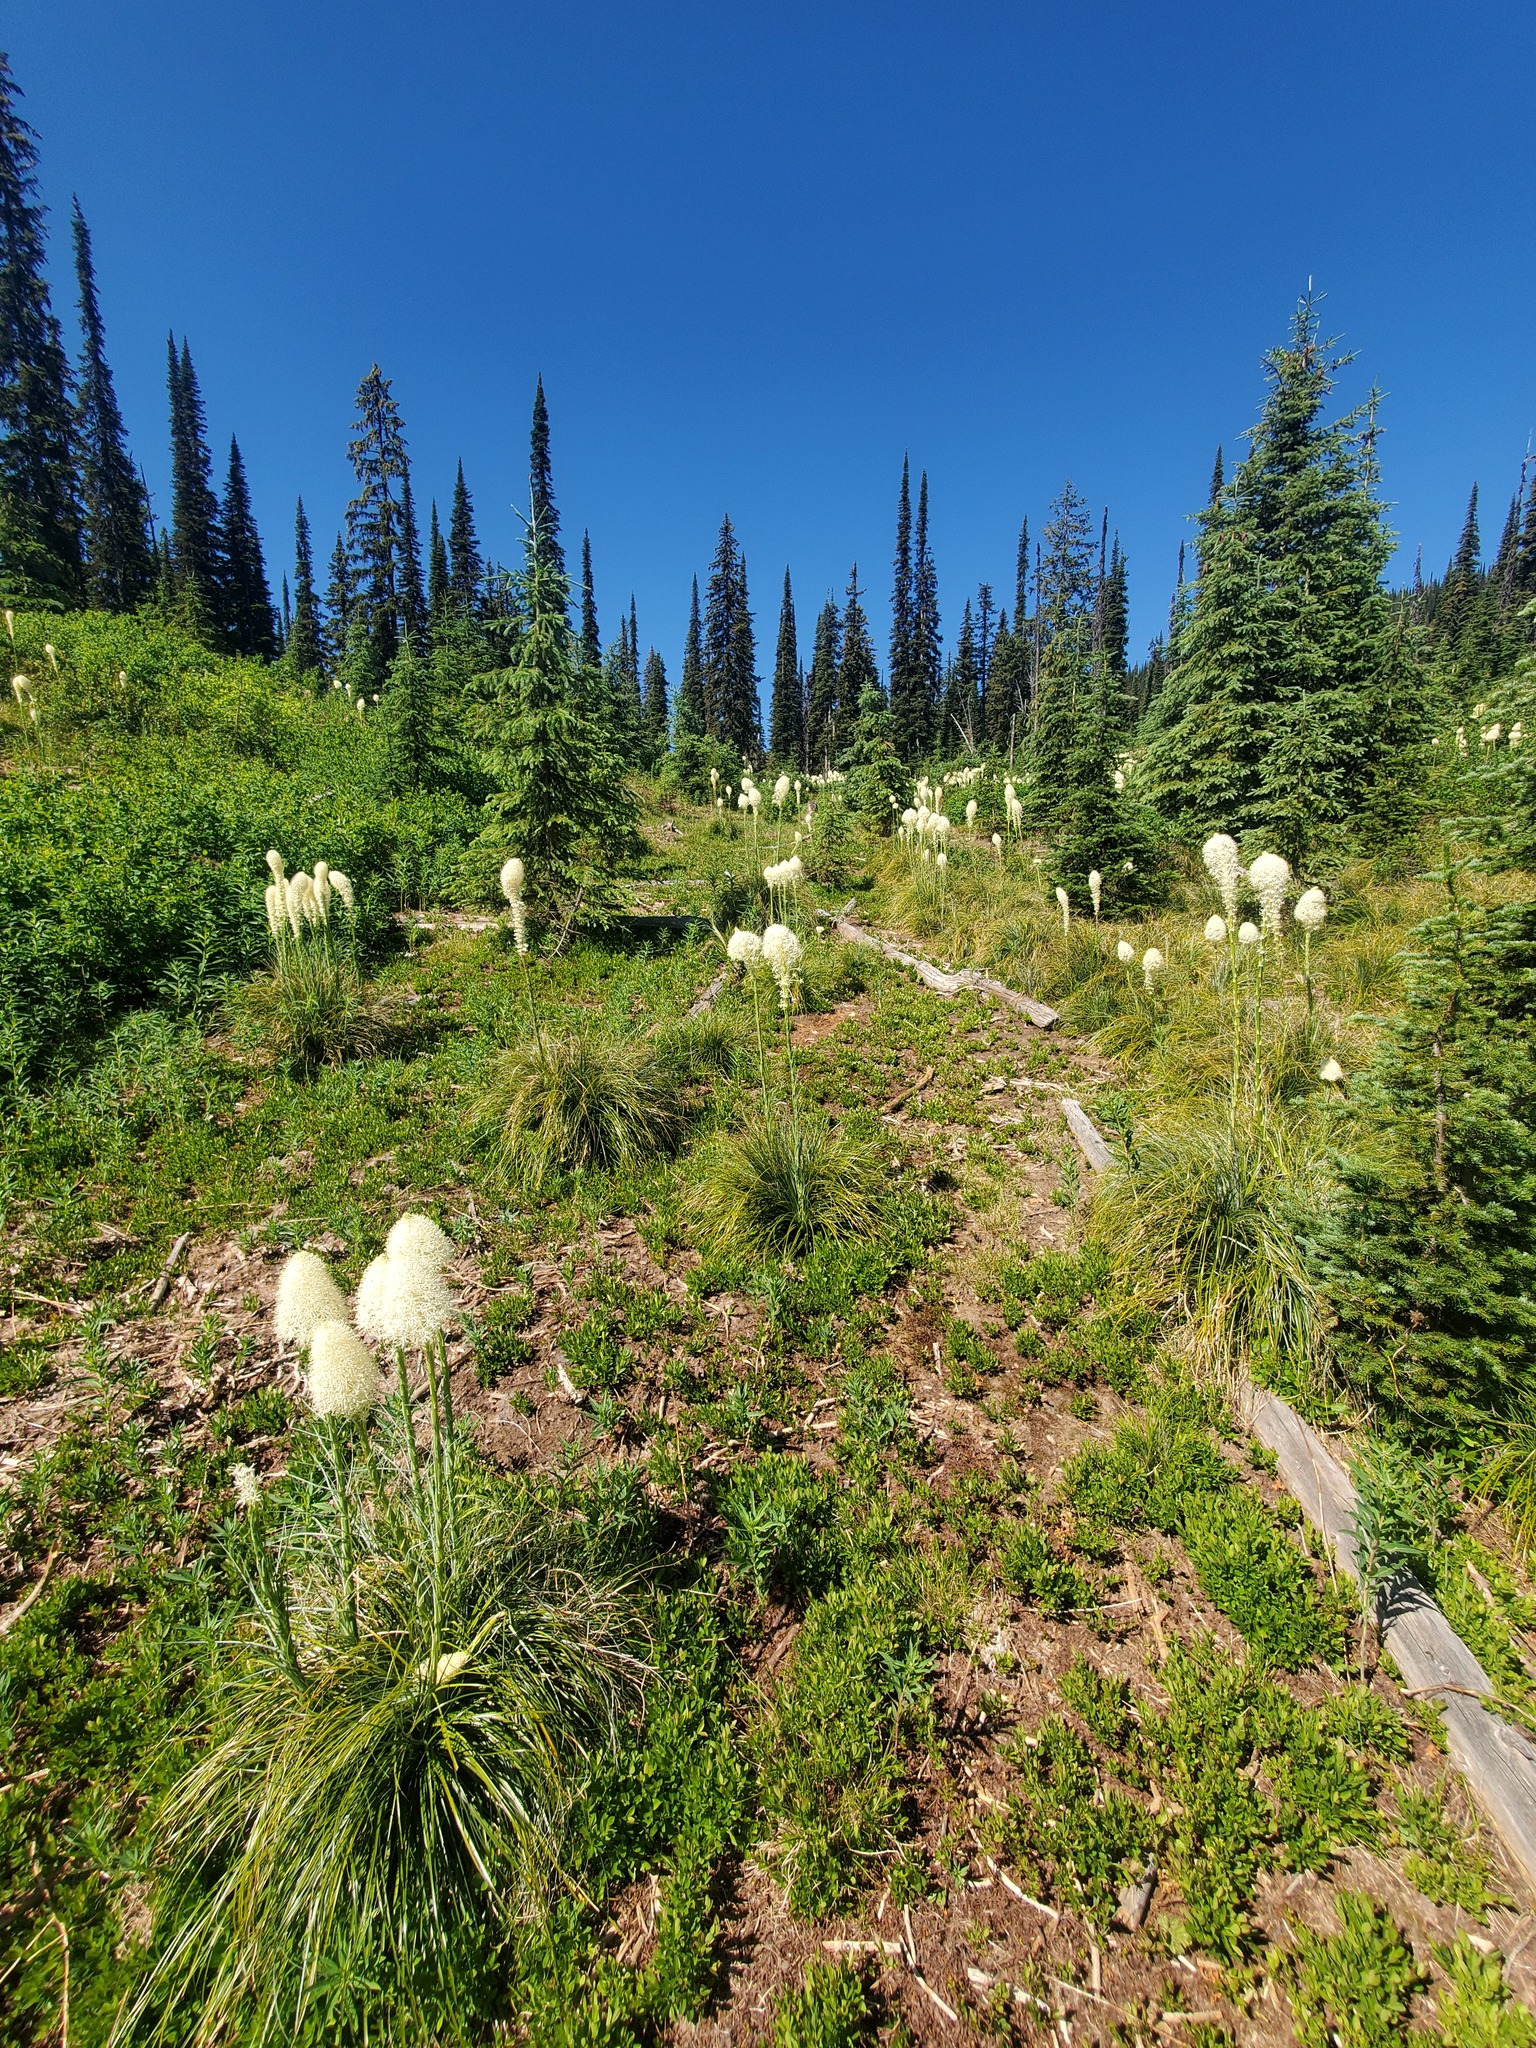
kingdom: Plantae
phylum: Tracheophyta
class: Liliopsida
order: Liliales
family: Melanthiaceae
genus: Xerophyllum
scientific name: Xerophyllum tenax
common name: Bear-grass
